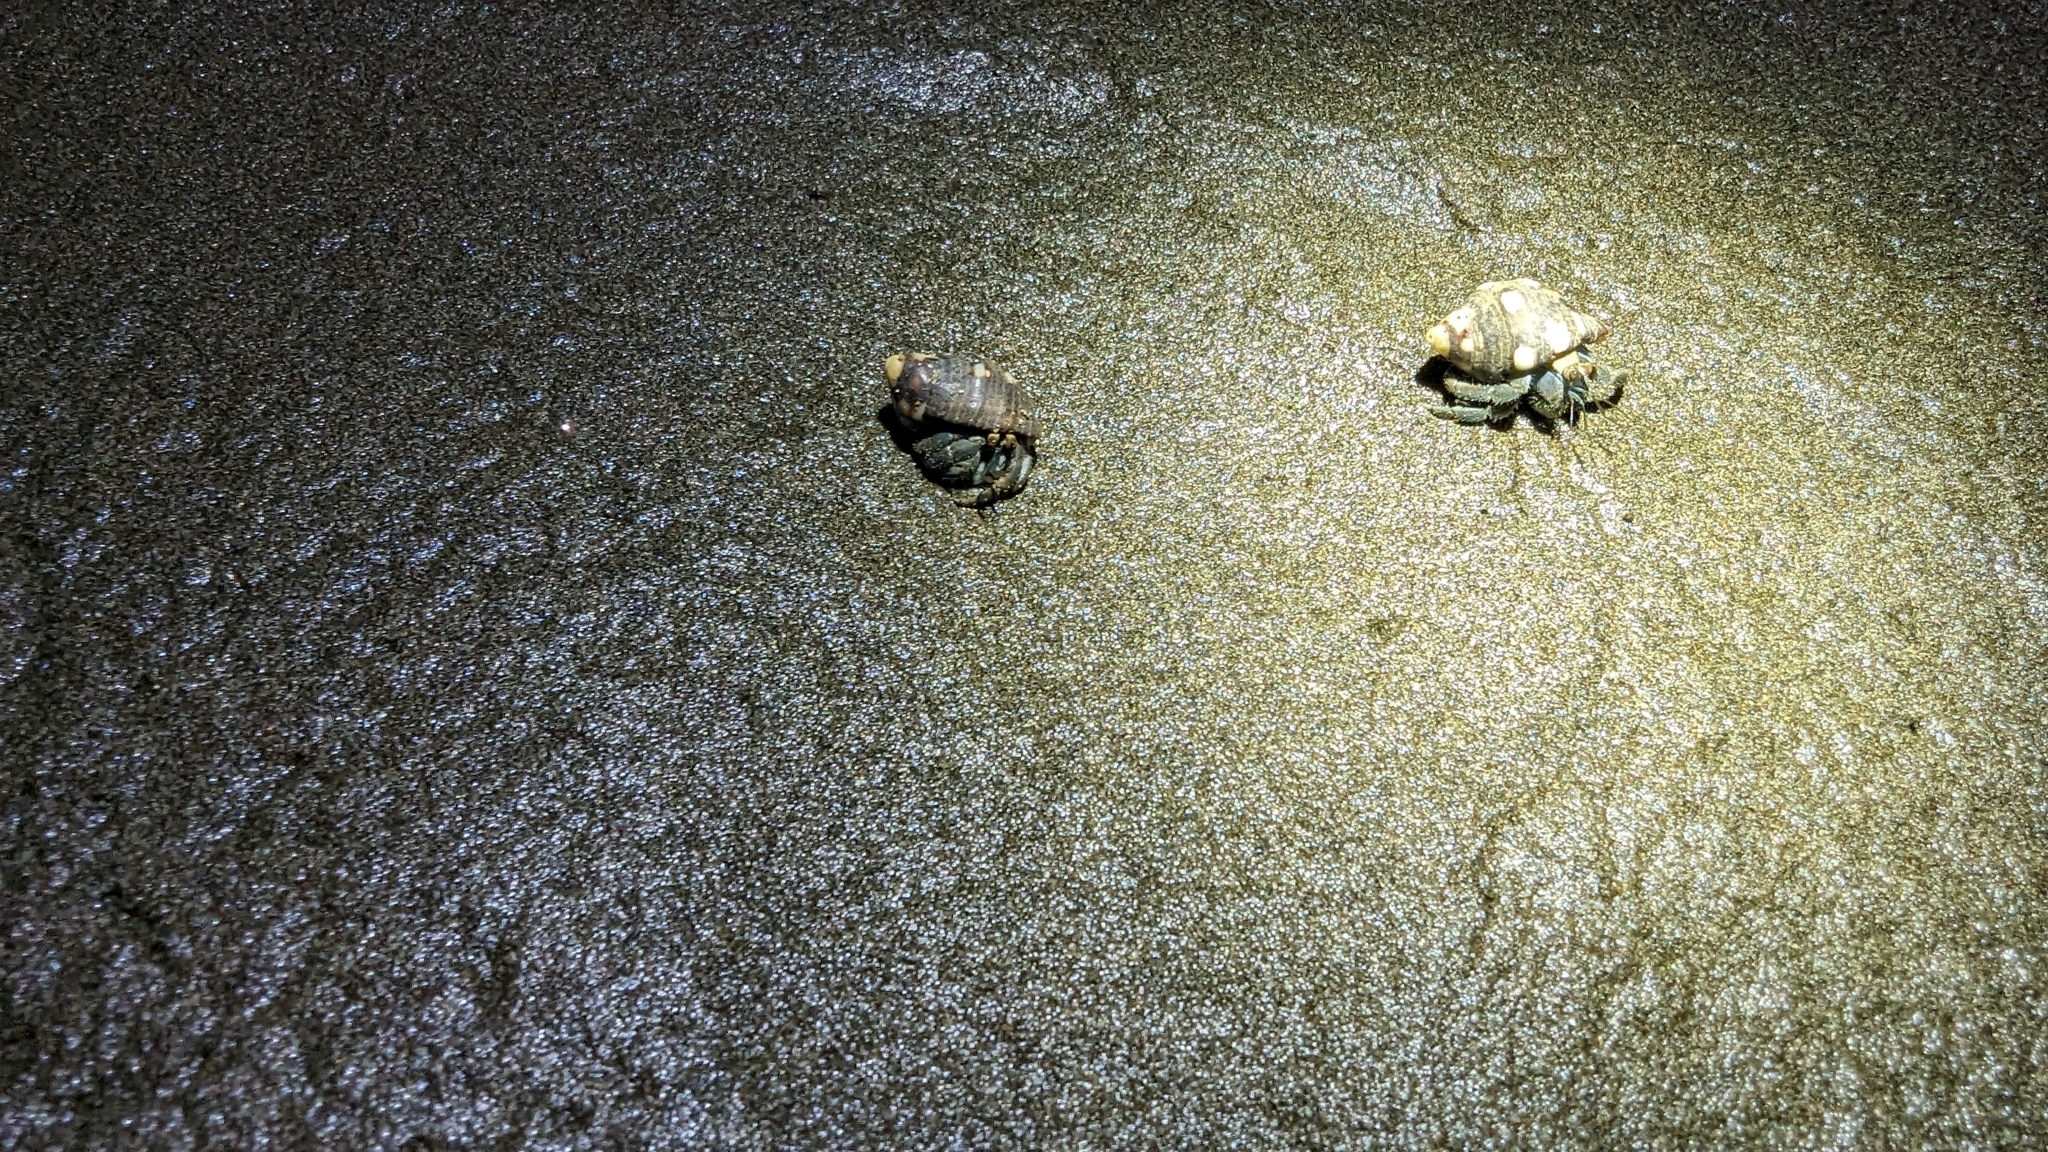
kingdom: Animalia
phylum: Arthropoda
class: Malacostraca
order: Decapoda
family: Coenobitidae
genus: Coenobita
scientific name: Coenobita compressus
